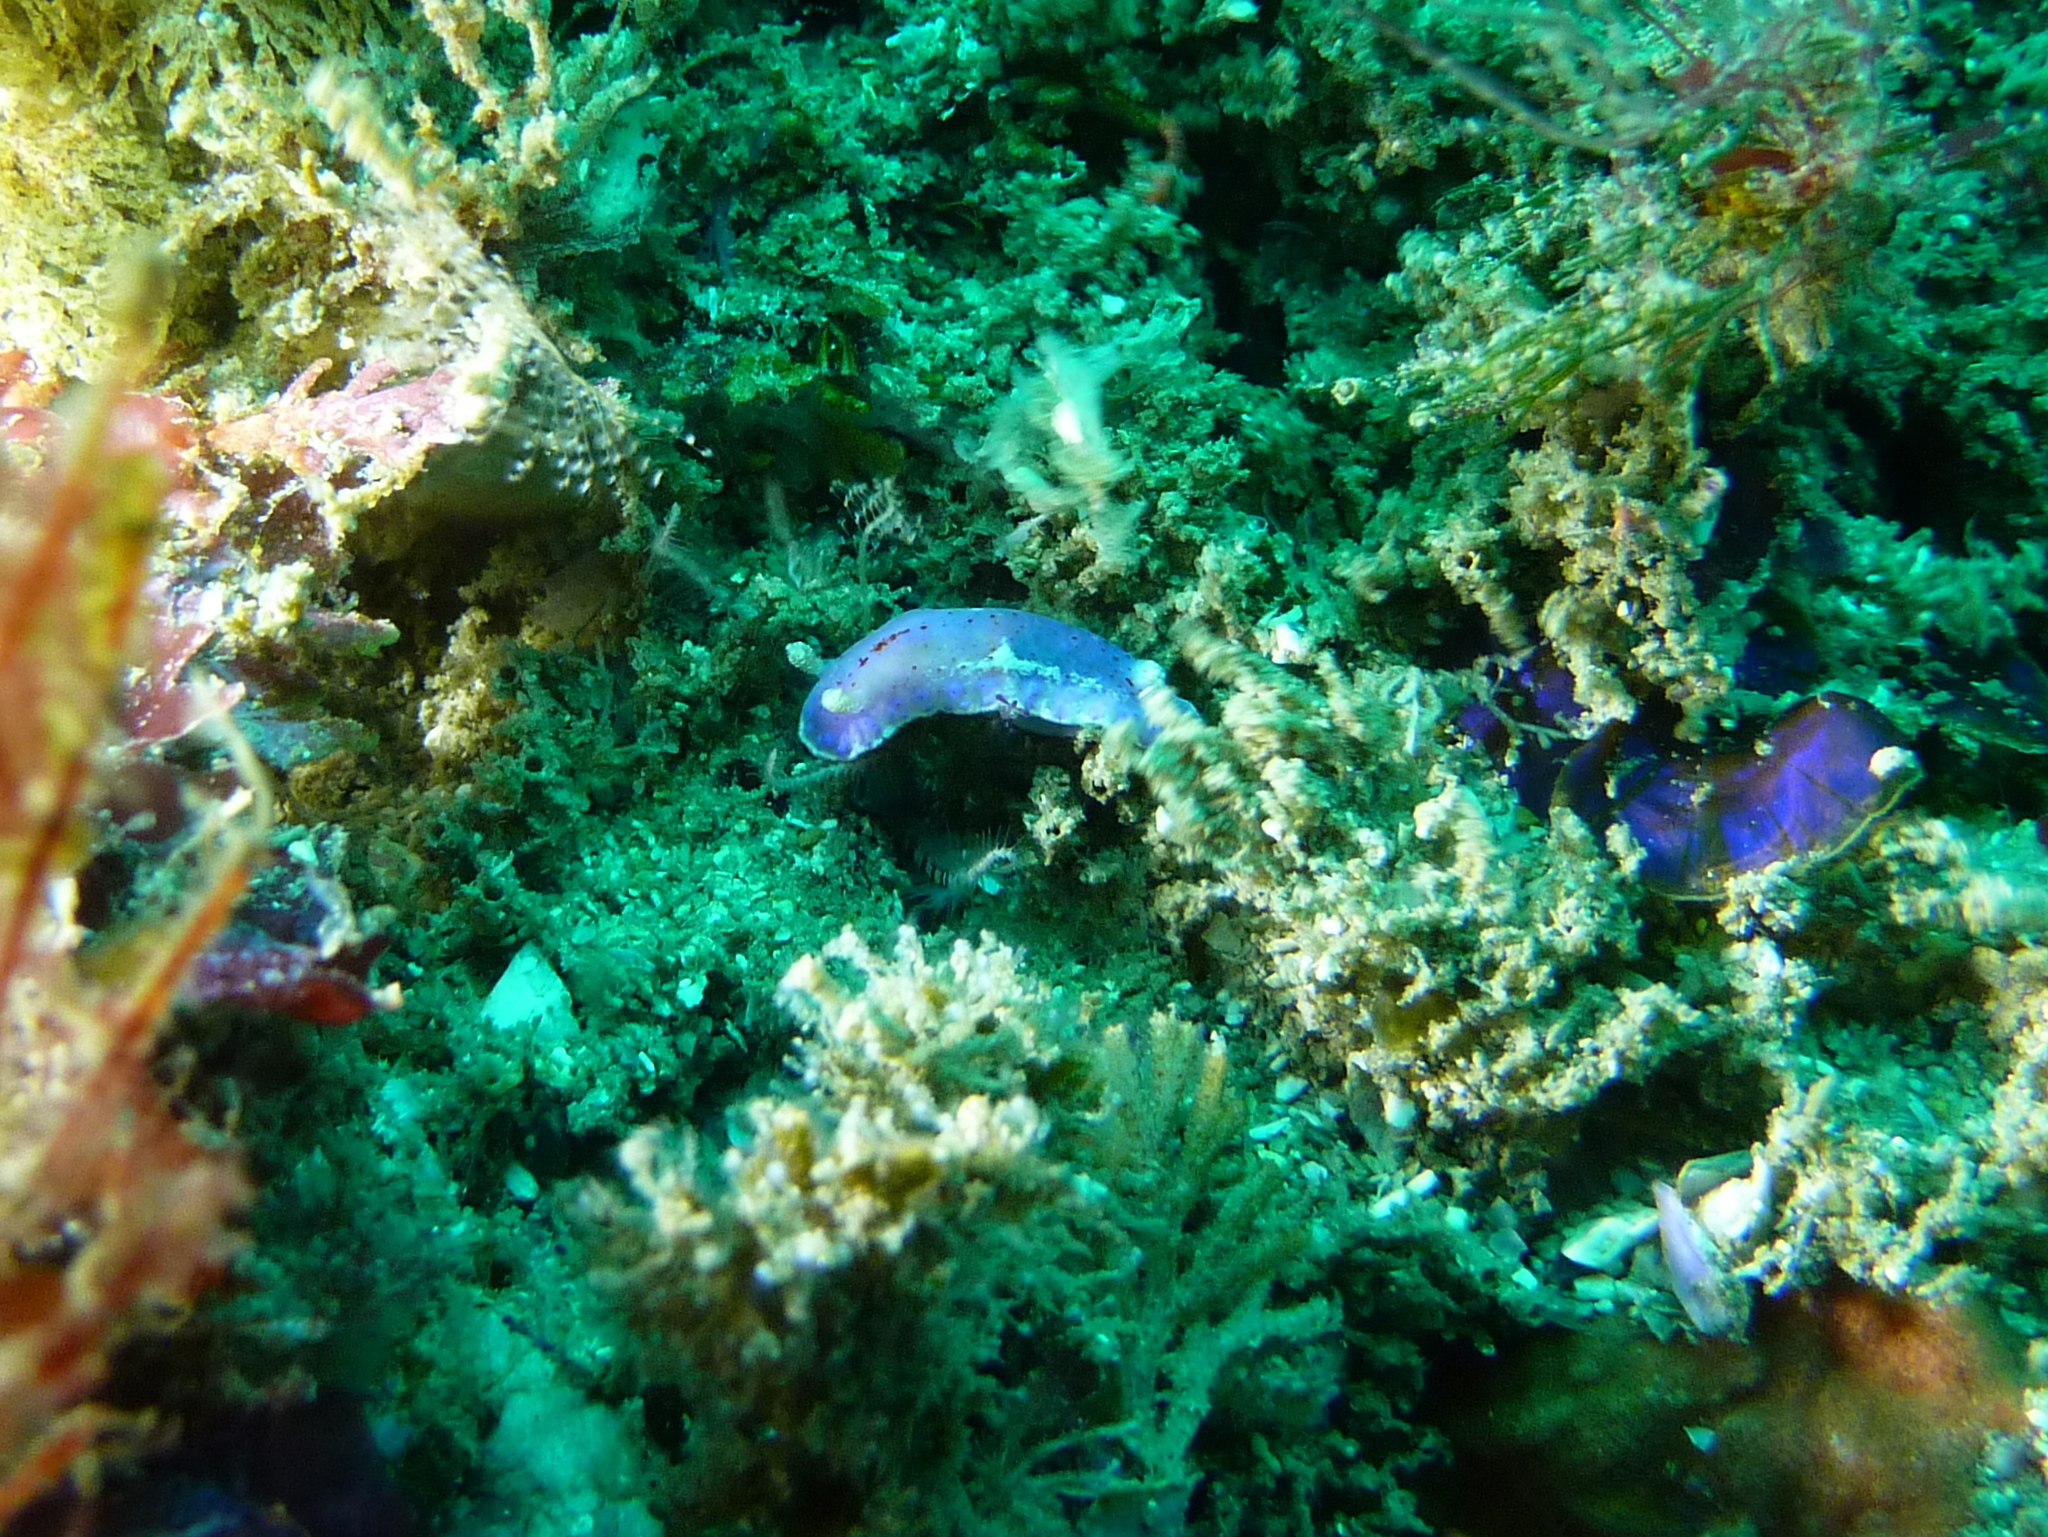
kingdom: Animalia
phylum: Mollusca
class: Gastropoda
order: Nudibranchia
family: Chromodorididae
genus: Goniobranchus
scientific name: Goniobranchus thompsoni
